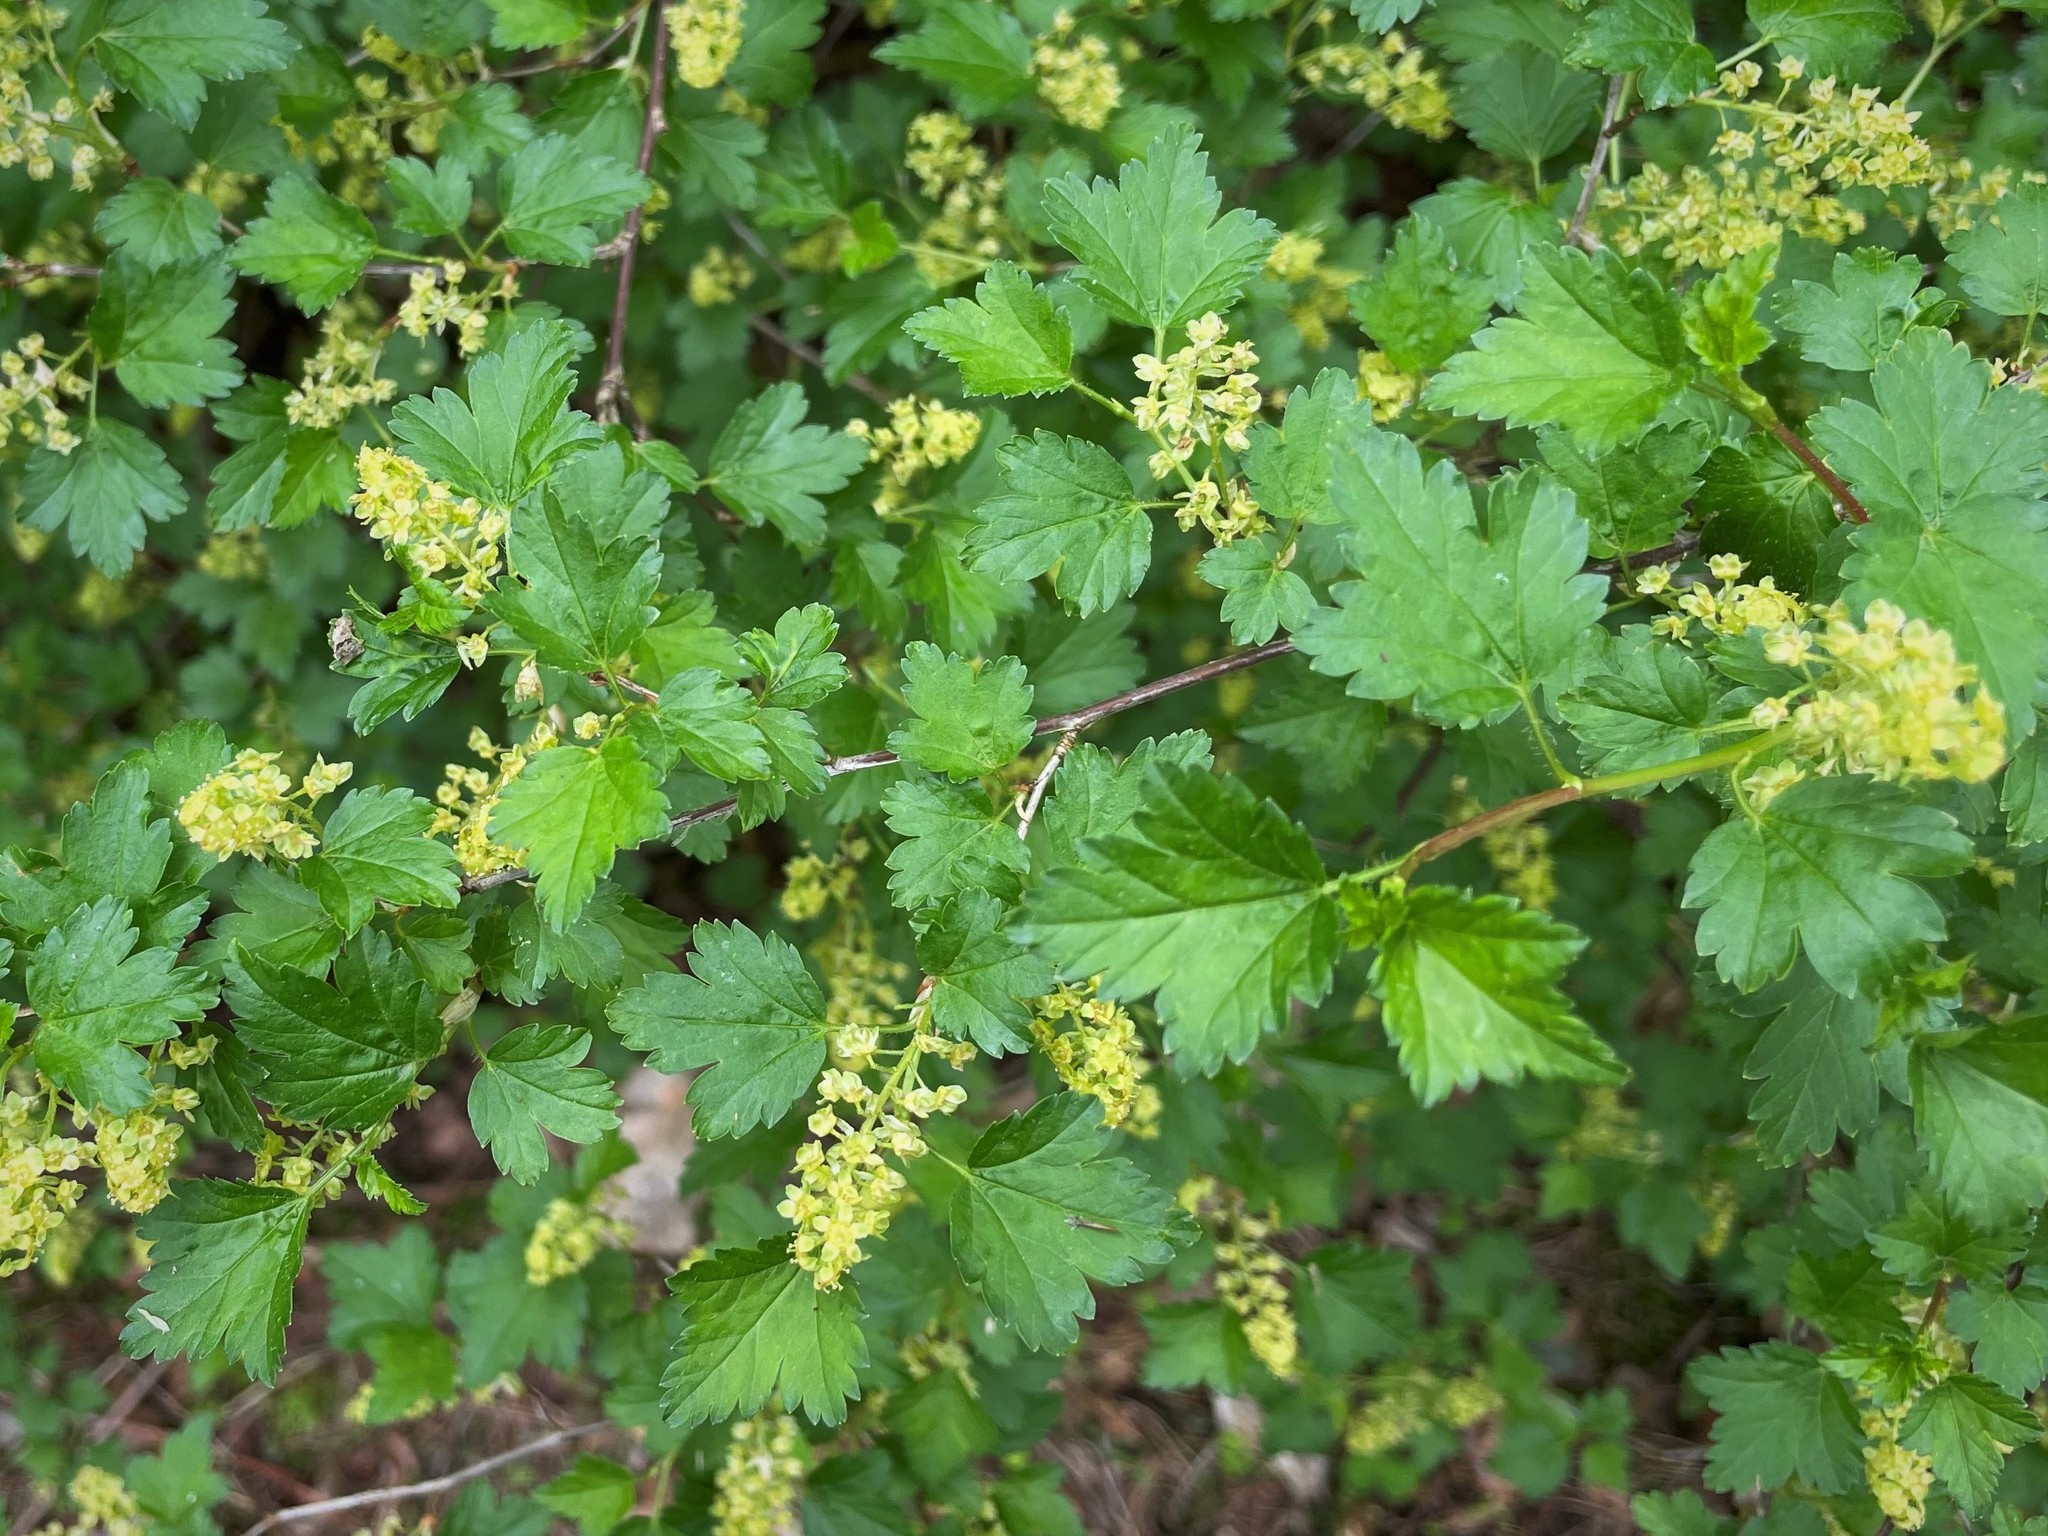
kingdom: Plantae
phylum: Tracheophyta
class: Magnoliopsida
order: Saxifragales
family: Grossulariaceae
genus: Ribes
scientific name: Ribes alpinum
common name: Alpine currant
